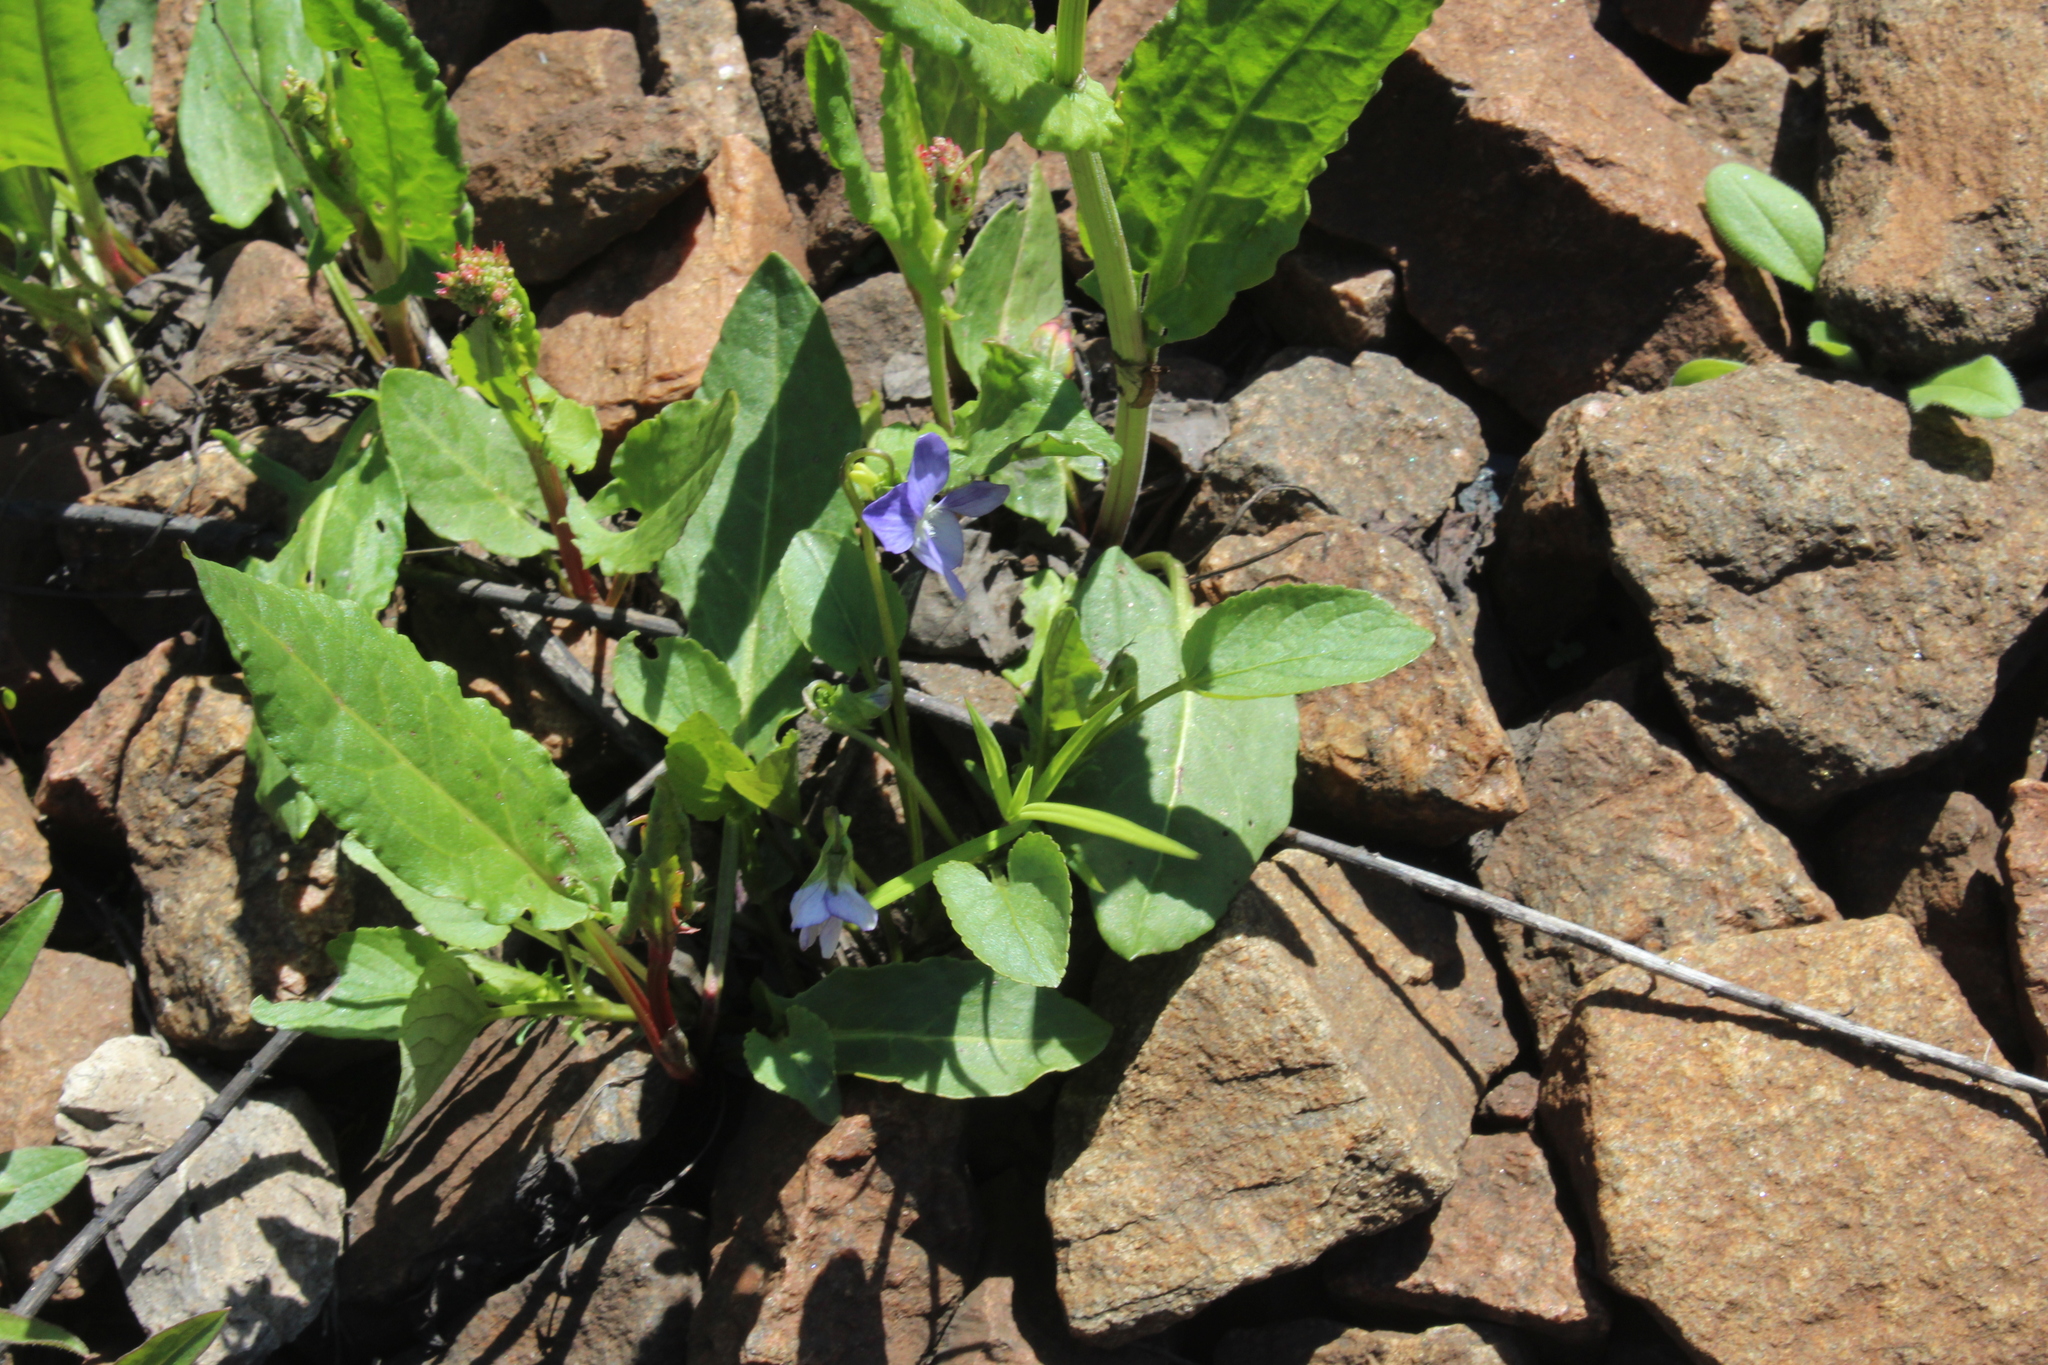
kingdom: Plantae
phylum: Tracheophyta
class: Magnoliopsida
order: Malpighiales
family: Violaceae
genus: Viola
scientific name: Viola canina
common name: Heath dog-violet
